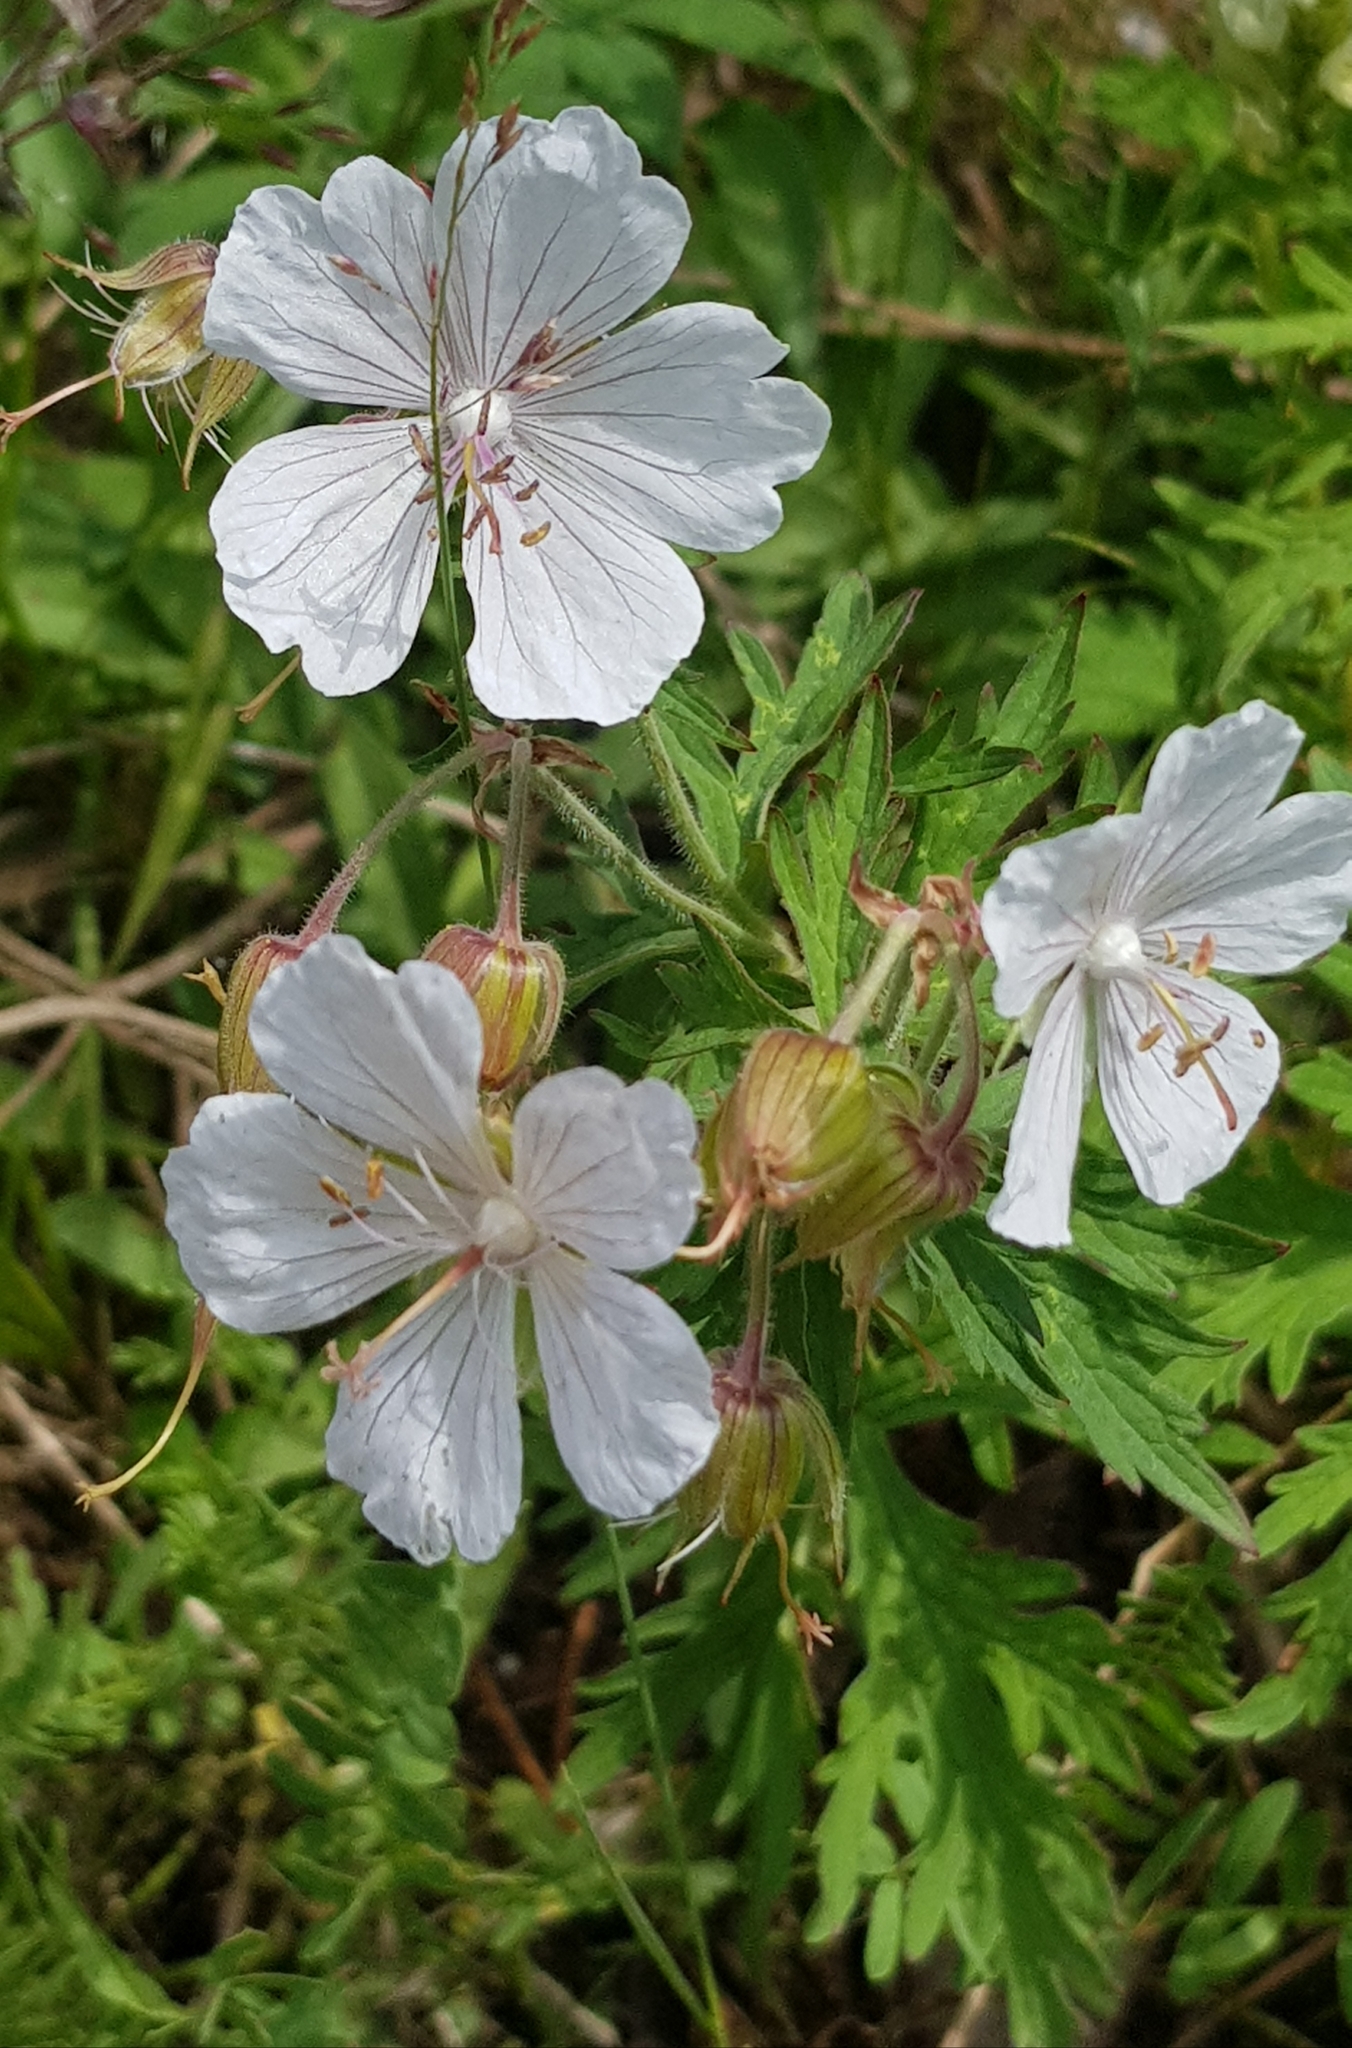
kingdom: Plantae
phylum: Tracheophyta
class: Magnoliopsida
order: Geraniales
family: Geraniaceae
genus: Geranium
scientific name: Geranium pratense
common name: Meadow crane's-bill
